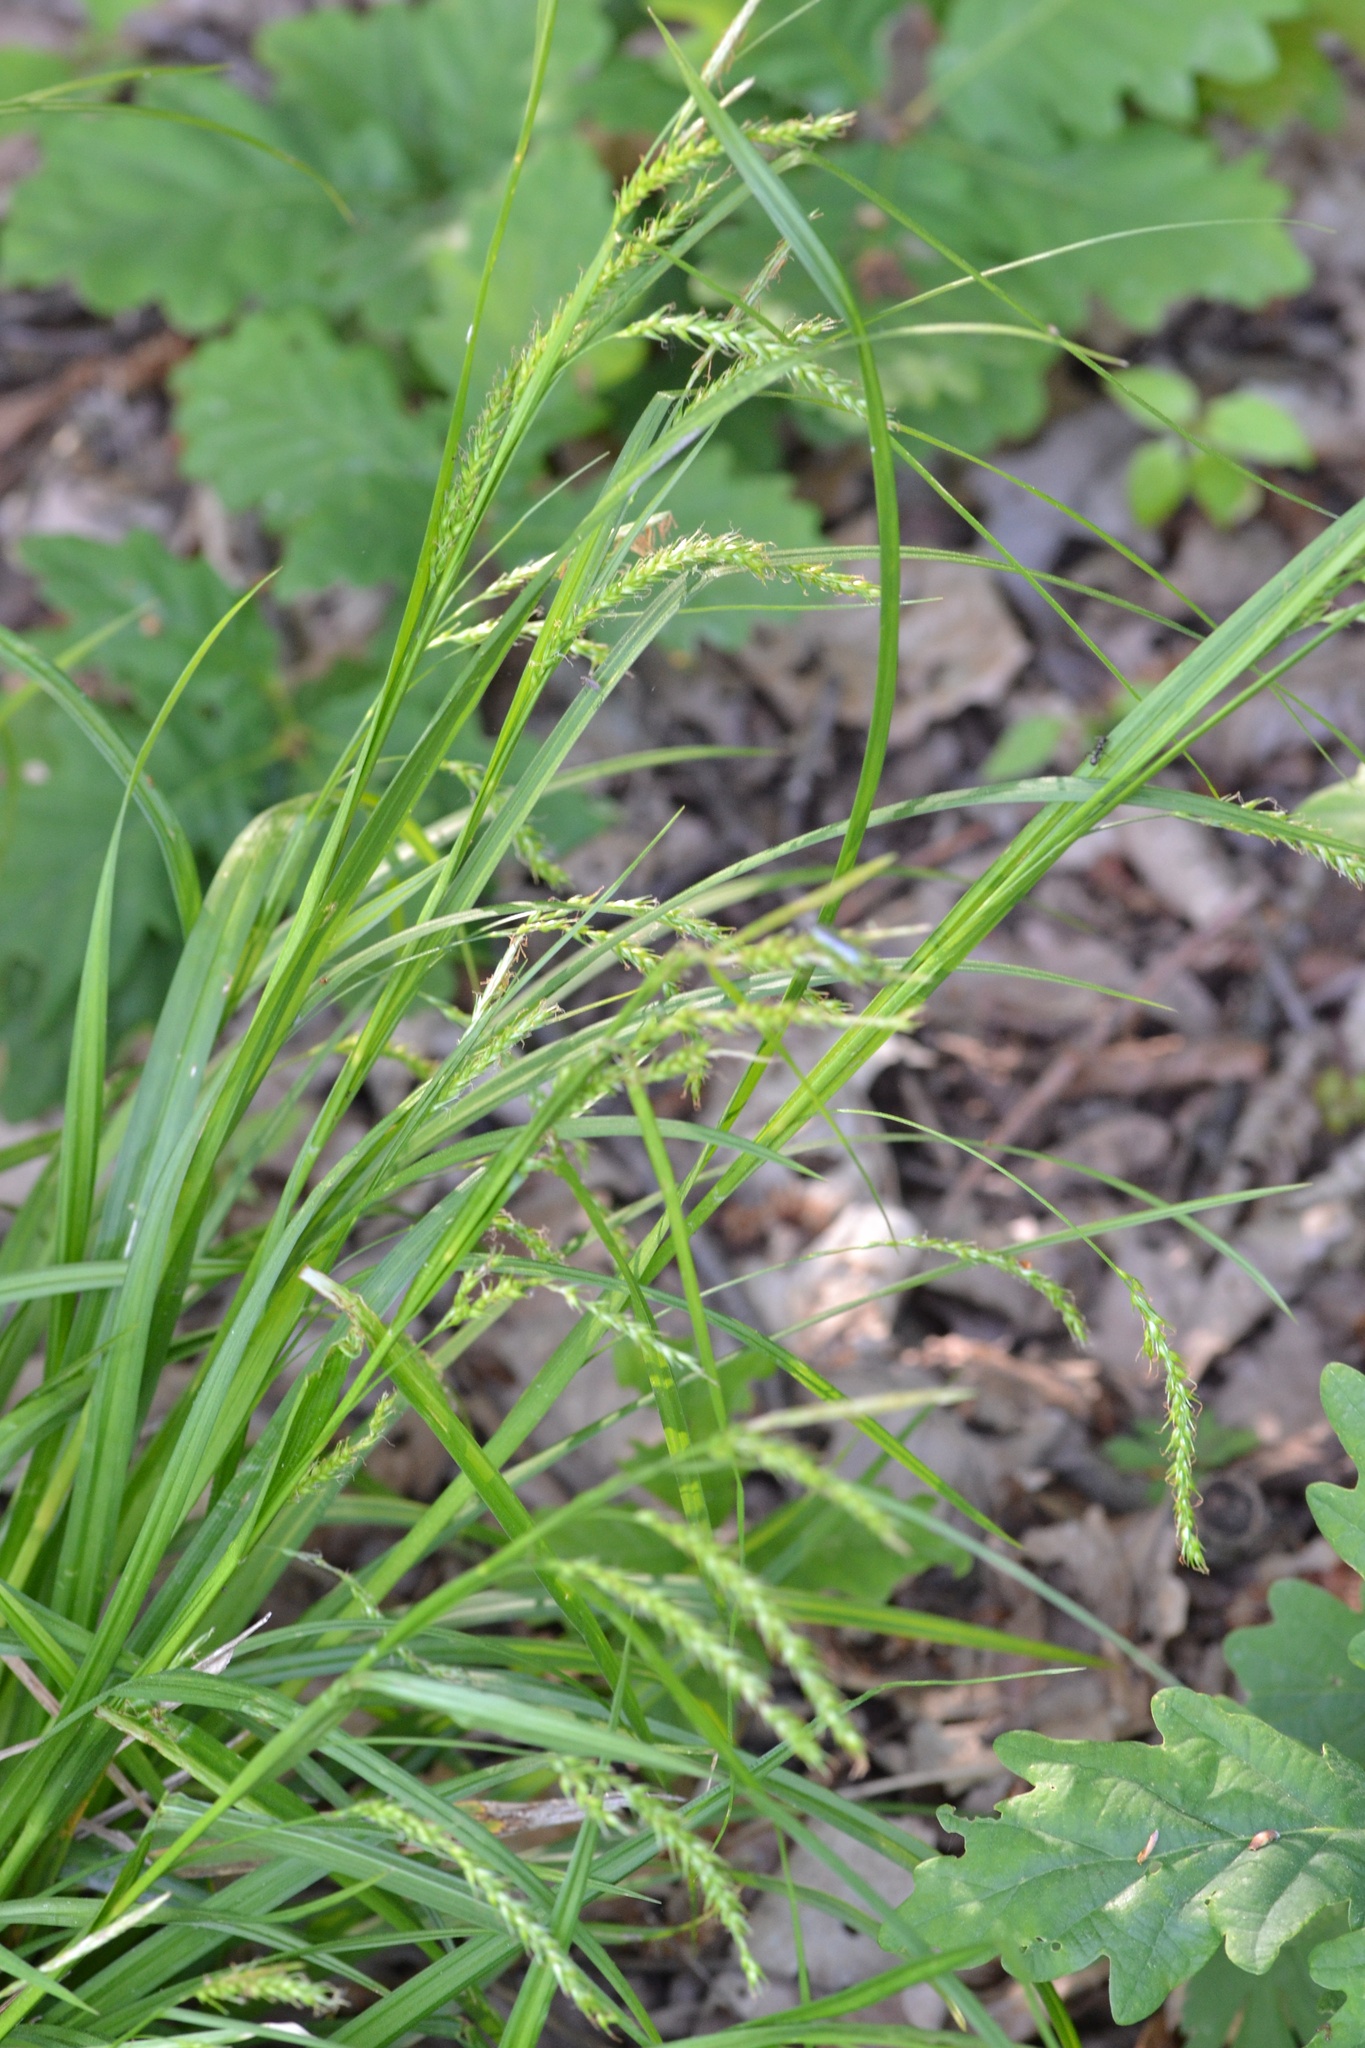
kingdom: Plantae
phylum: Tracheophyta
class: Liliopsida
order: Poales
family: Cyperaceae
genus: Carex
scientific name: Carex sylvatica
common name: Wood-sedge
